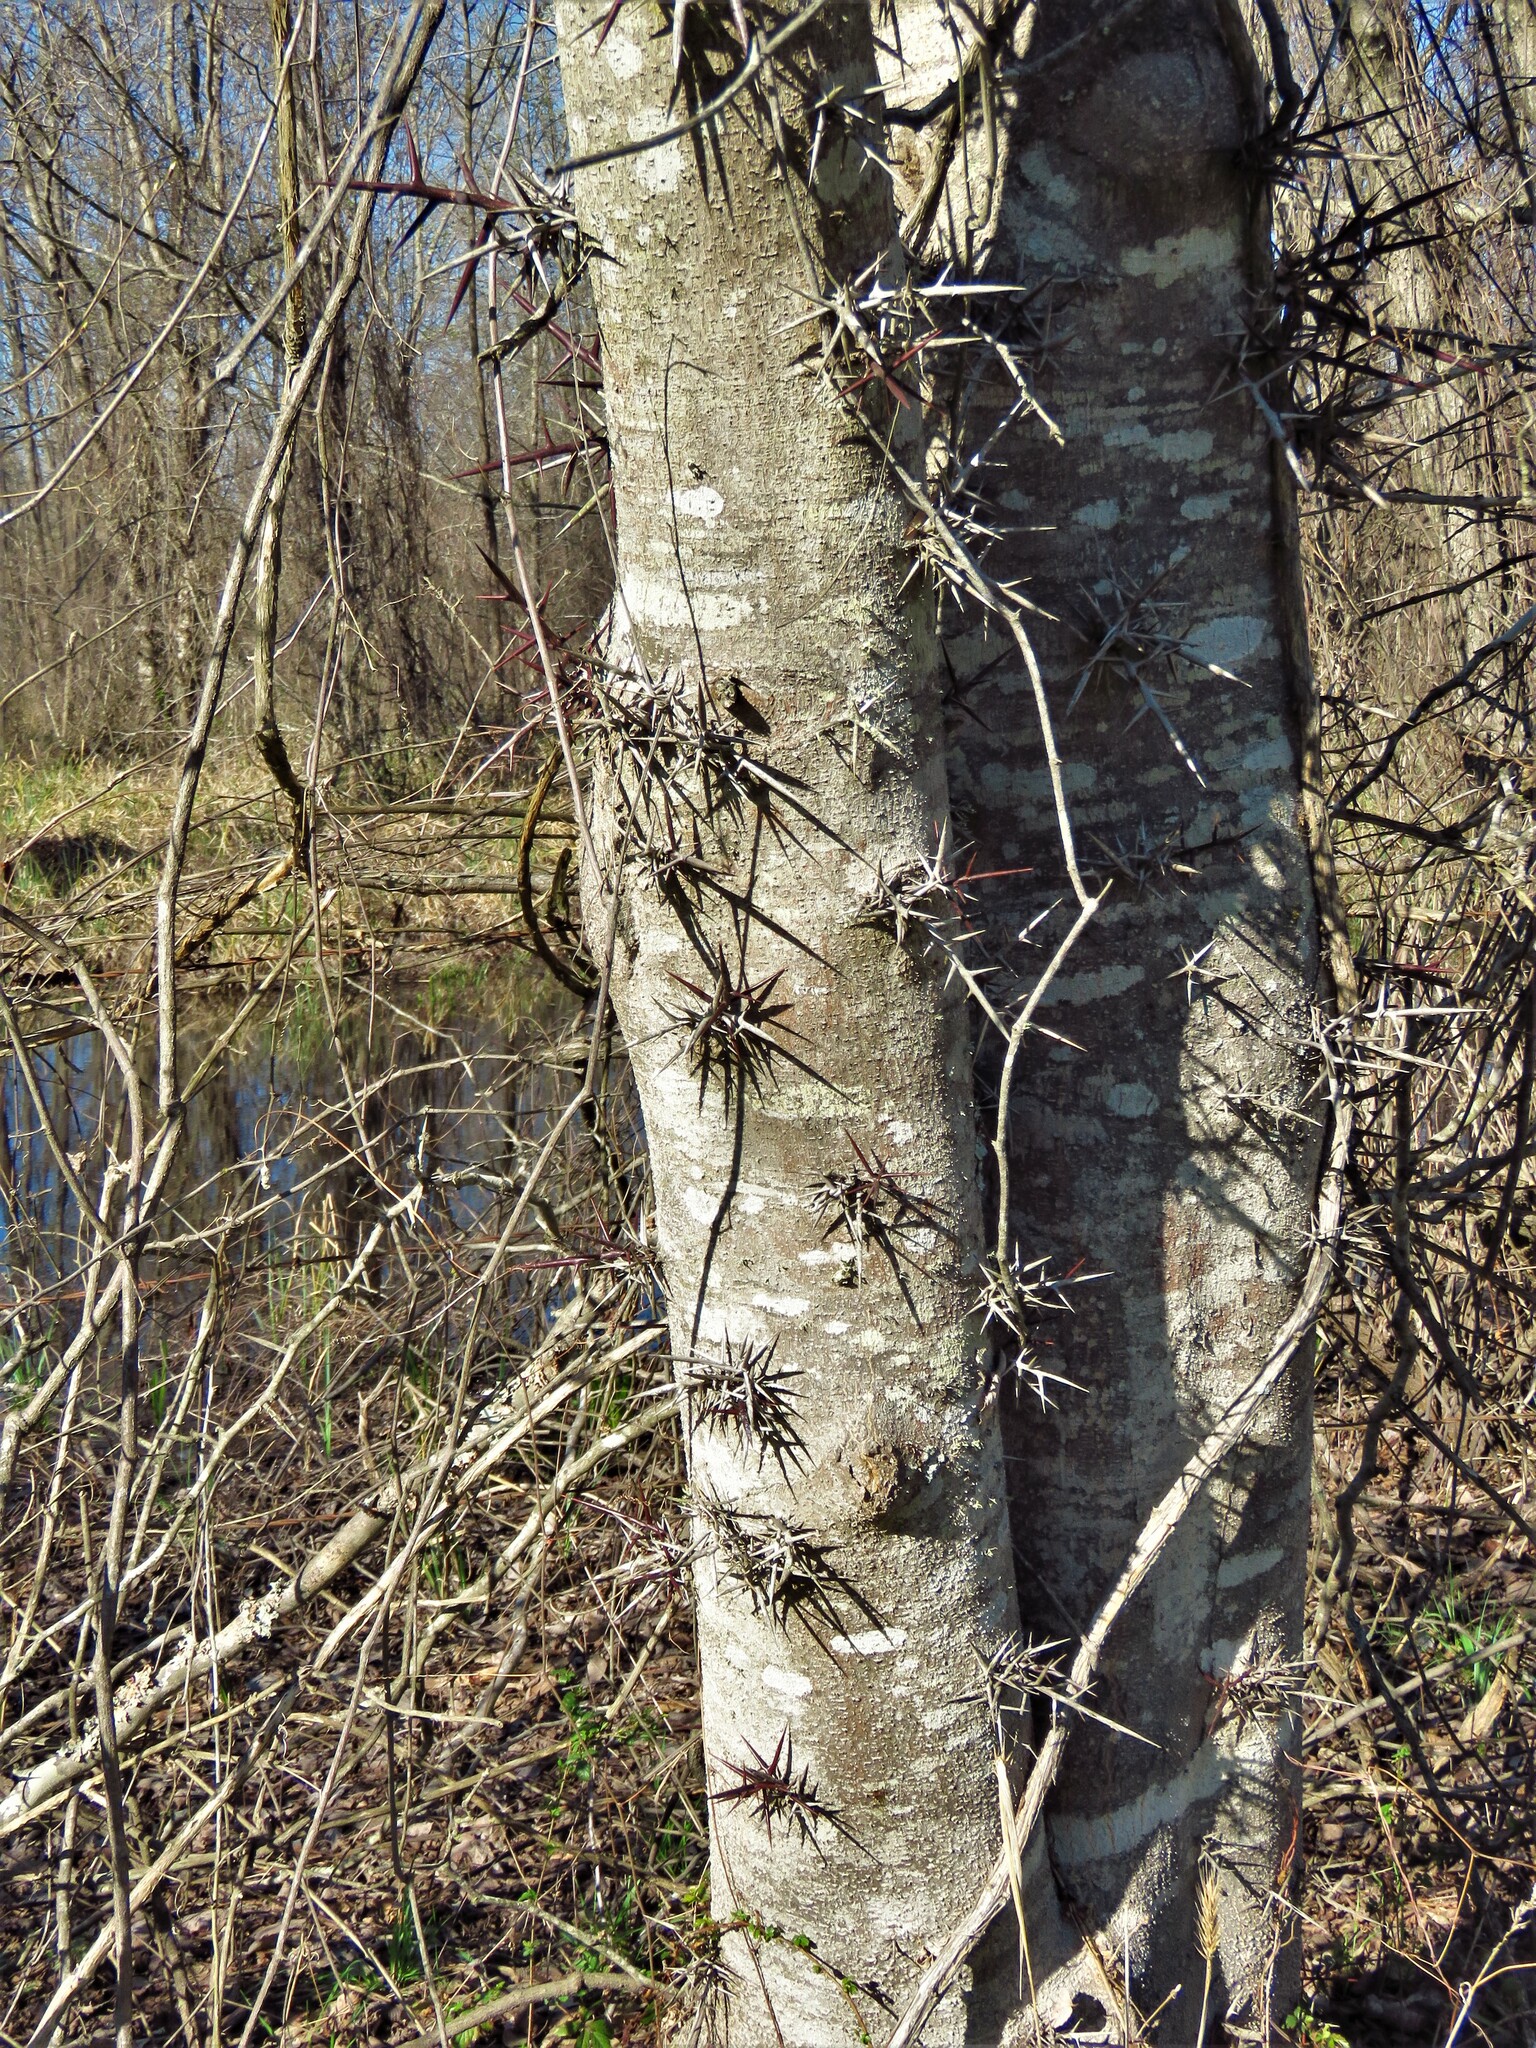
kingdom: Plantae
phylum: Tracheophyta
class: Magnoliopsida
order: Fabales
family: Fabaceae
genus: Gleditsia
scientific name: Gleditsia triacanthos
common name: Common honeylocust
